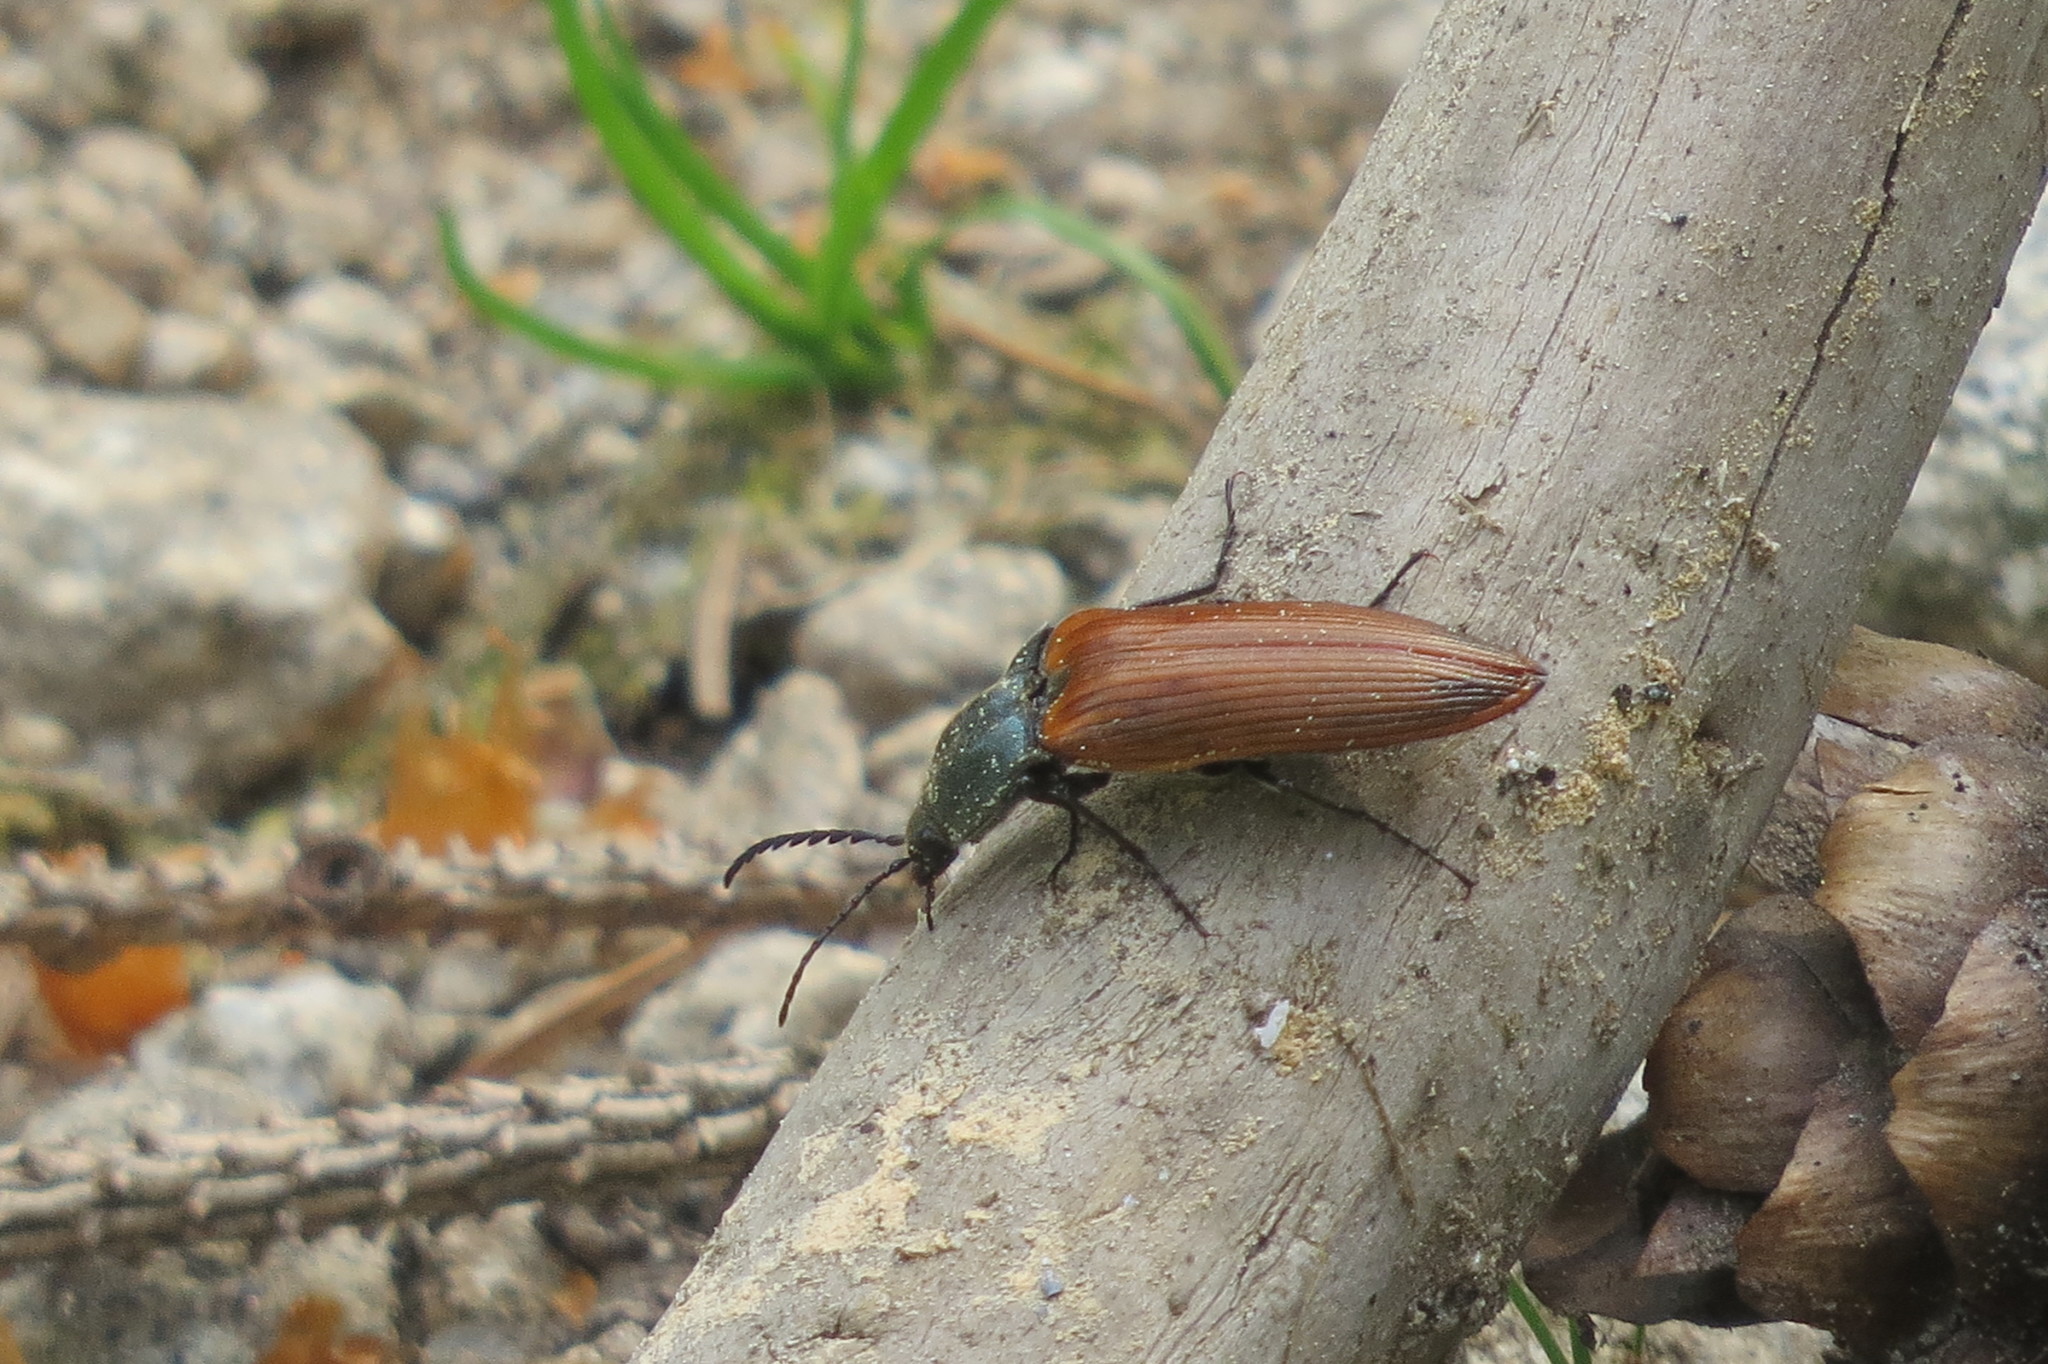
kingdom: Animalia
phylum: Arthropoda
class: Insecta
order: Coleoptera
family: Elateridae
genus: Ctenicera
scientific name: Ctenicera virens
